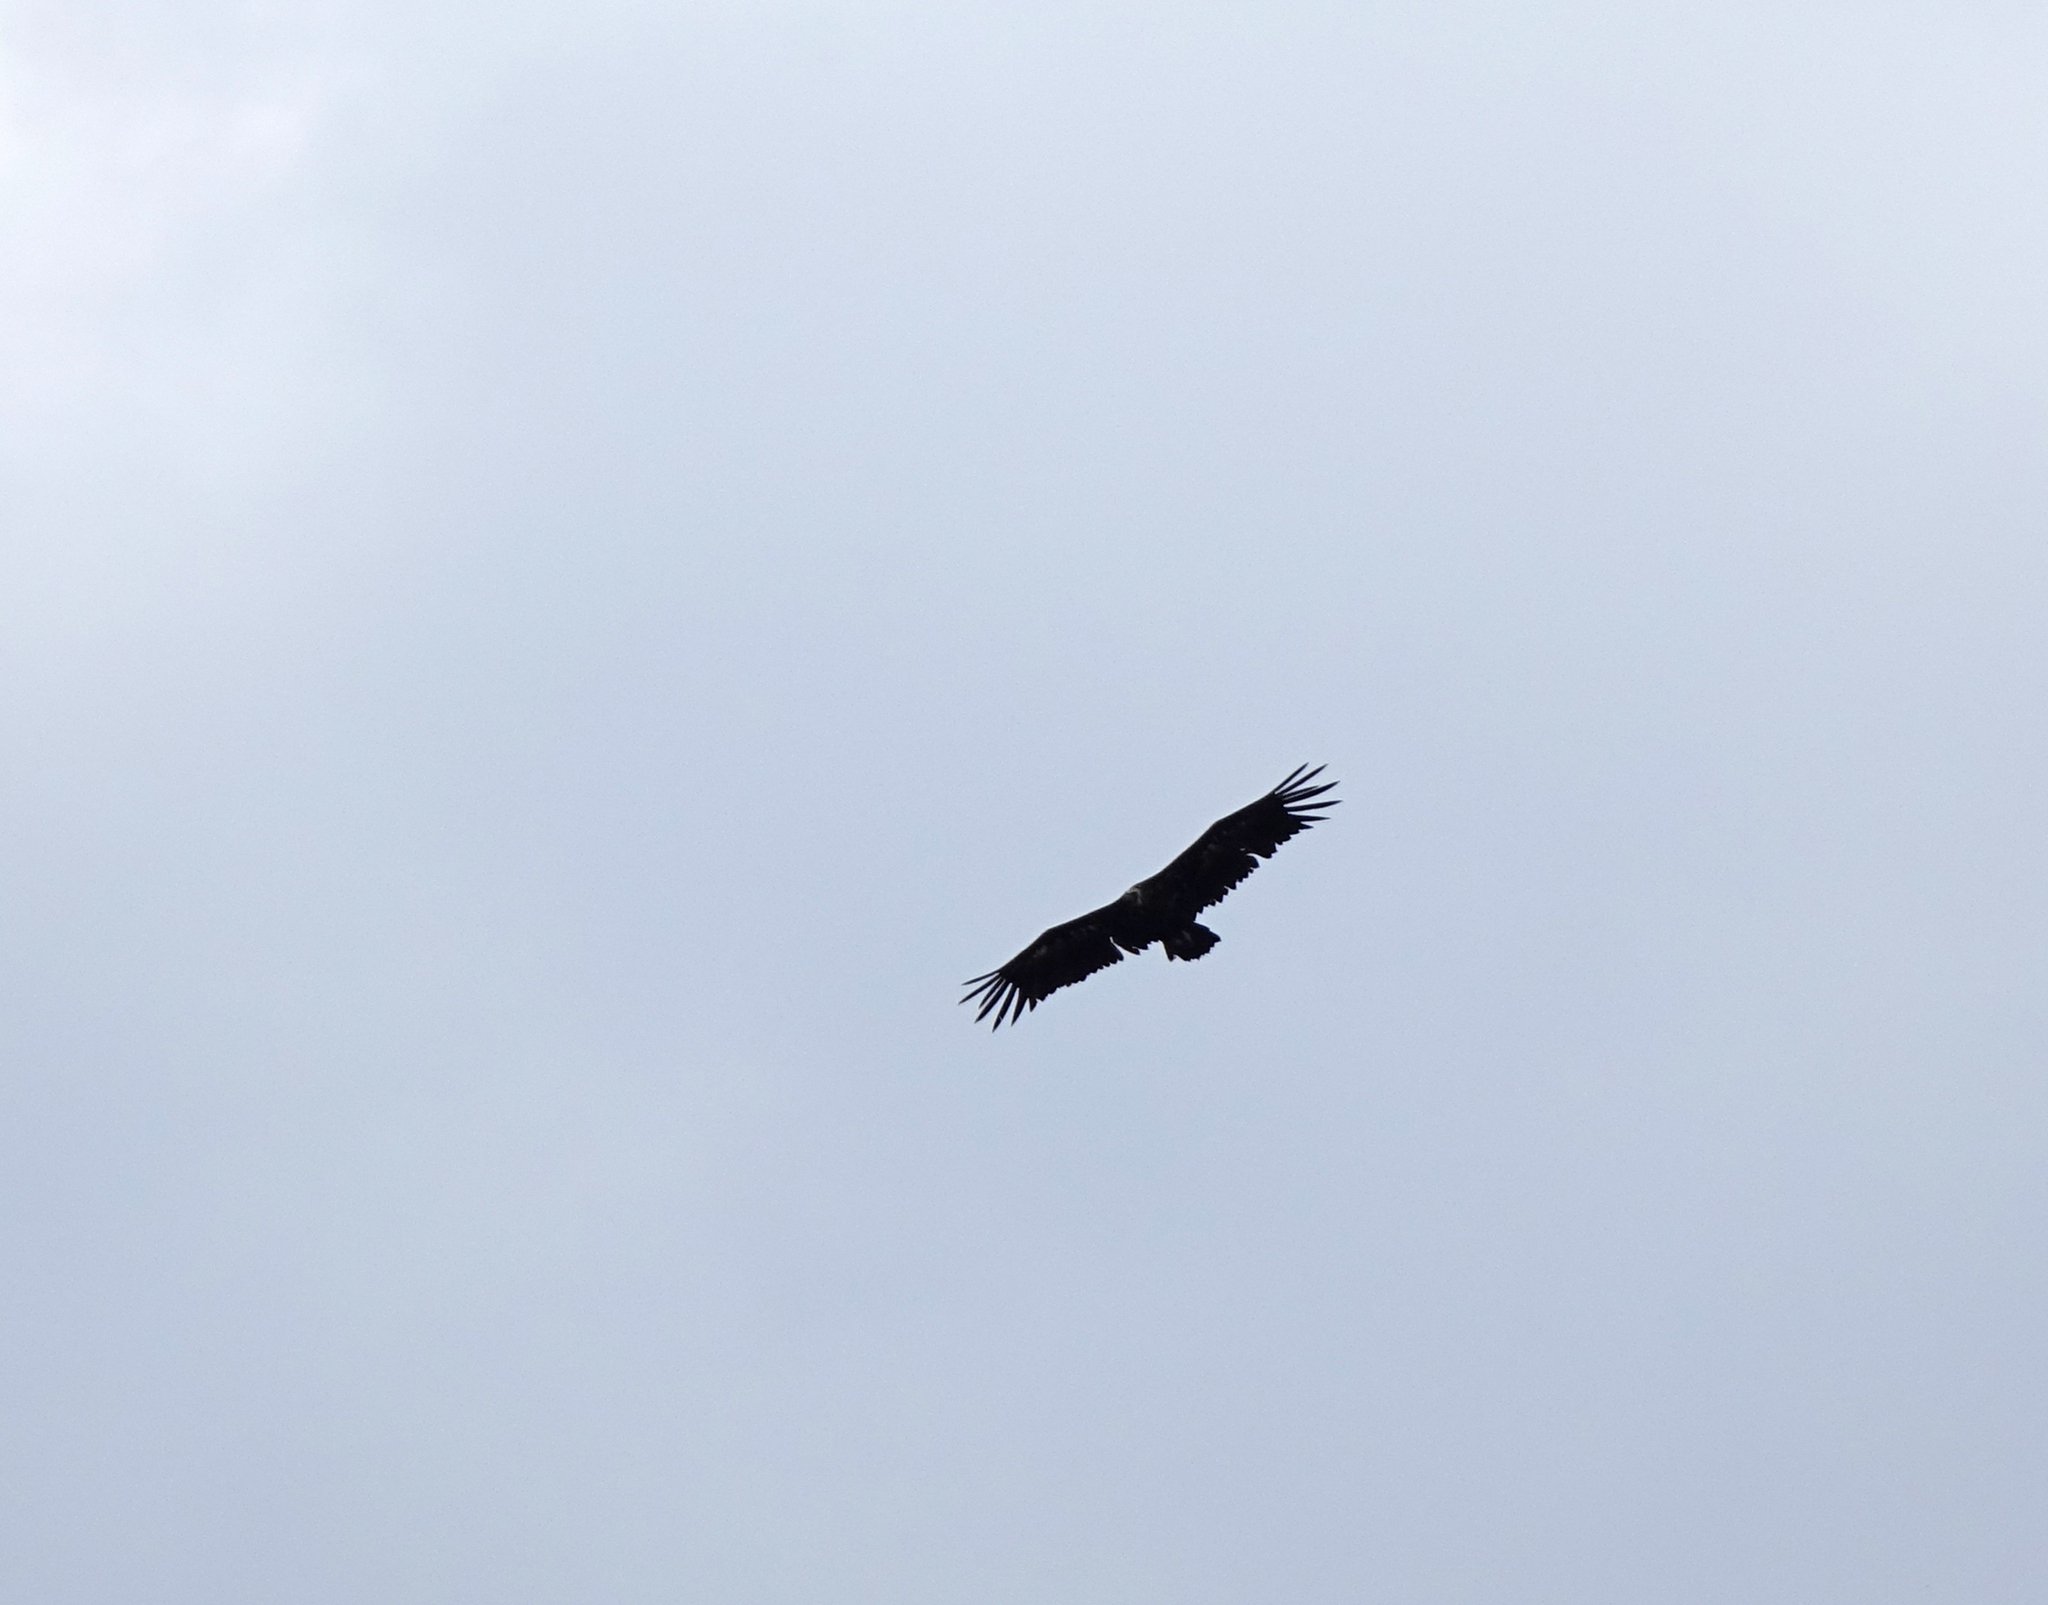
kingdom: Animalia
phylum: Chordata
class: Aves
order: Accipitriformes
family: Accipitridae
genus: Aegypius
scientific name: Aegypius monachus
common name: Cinereous vulture
